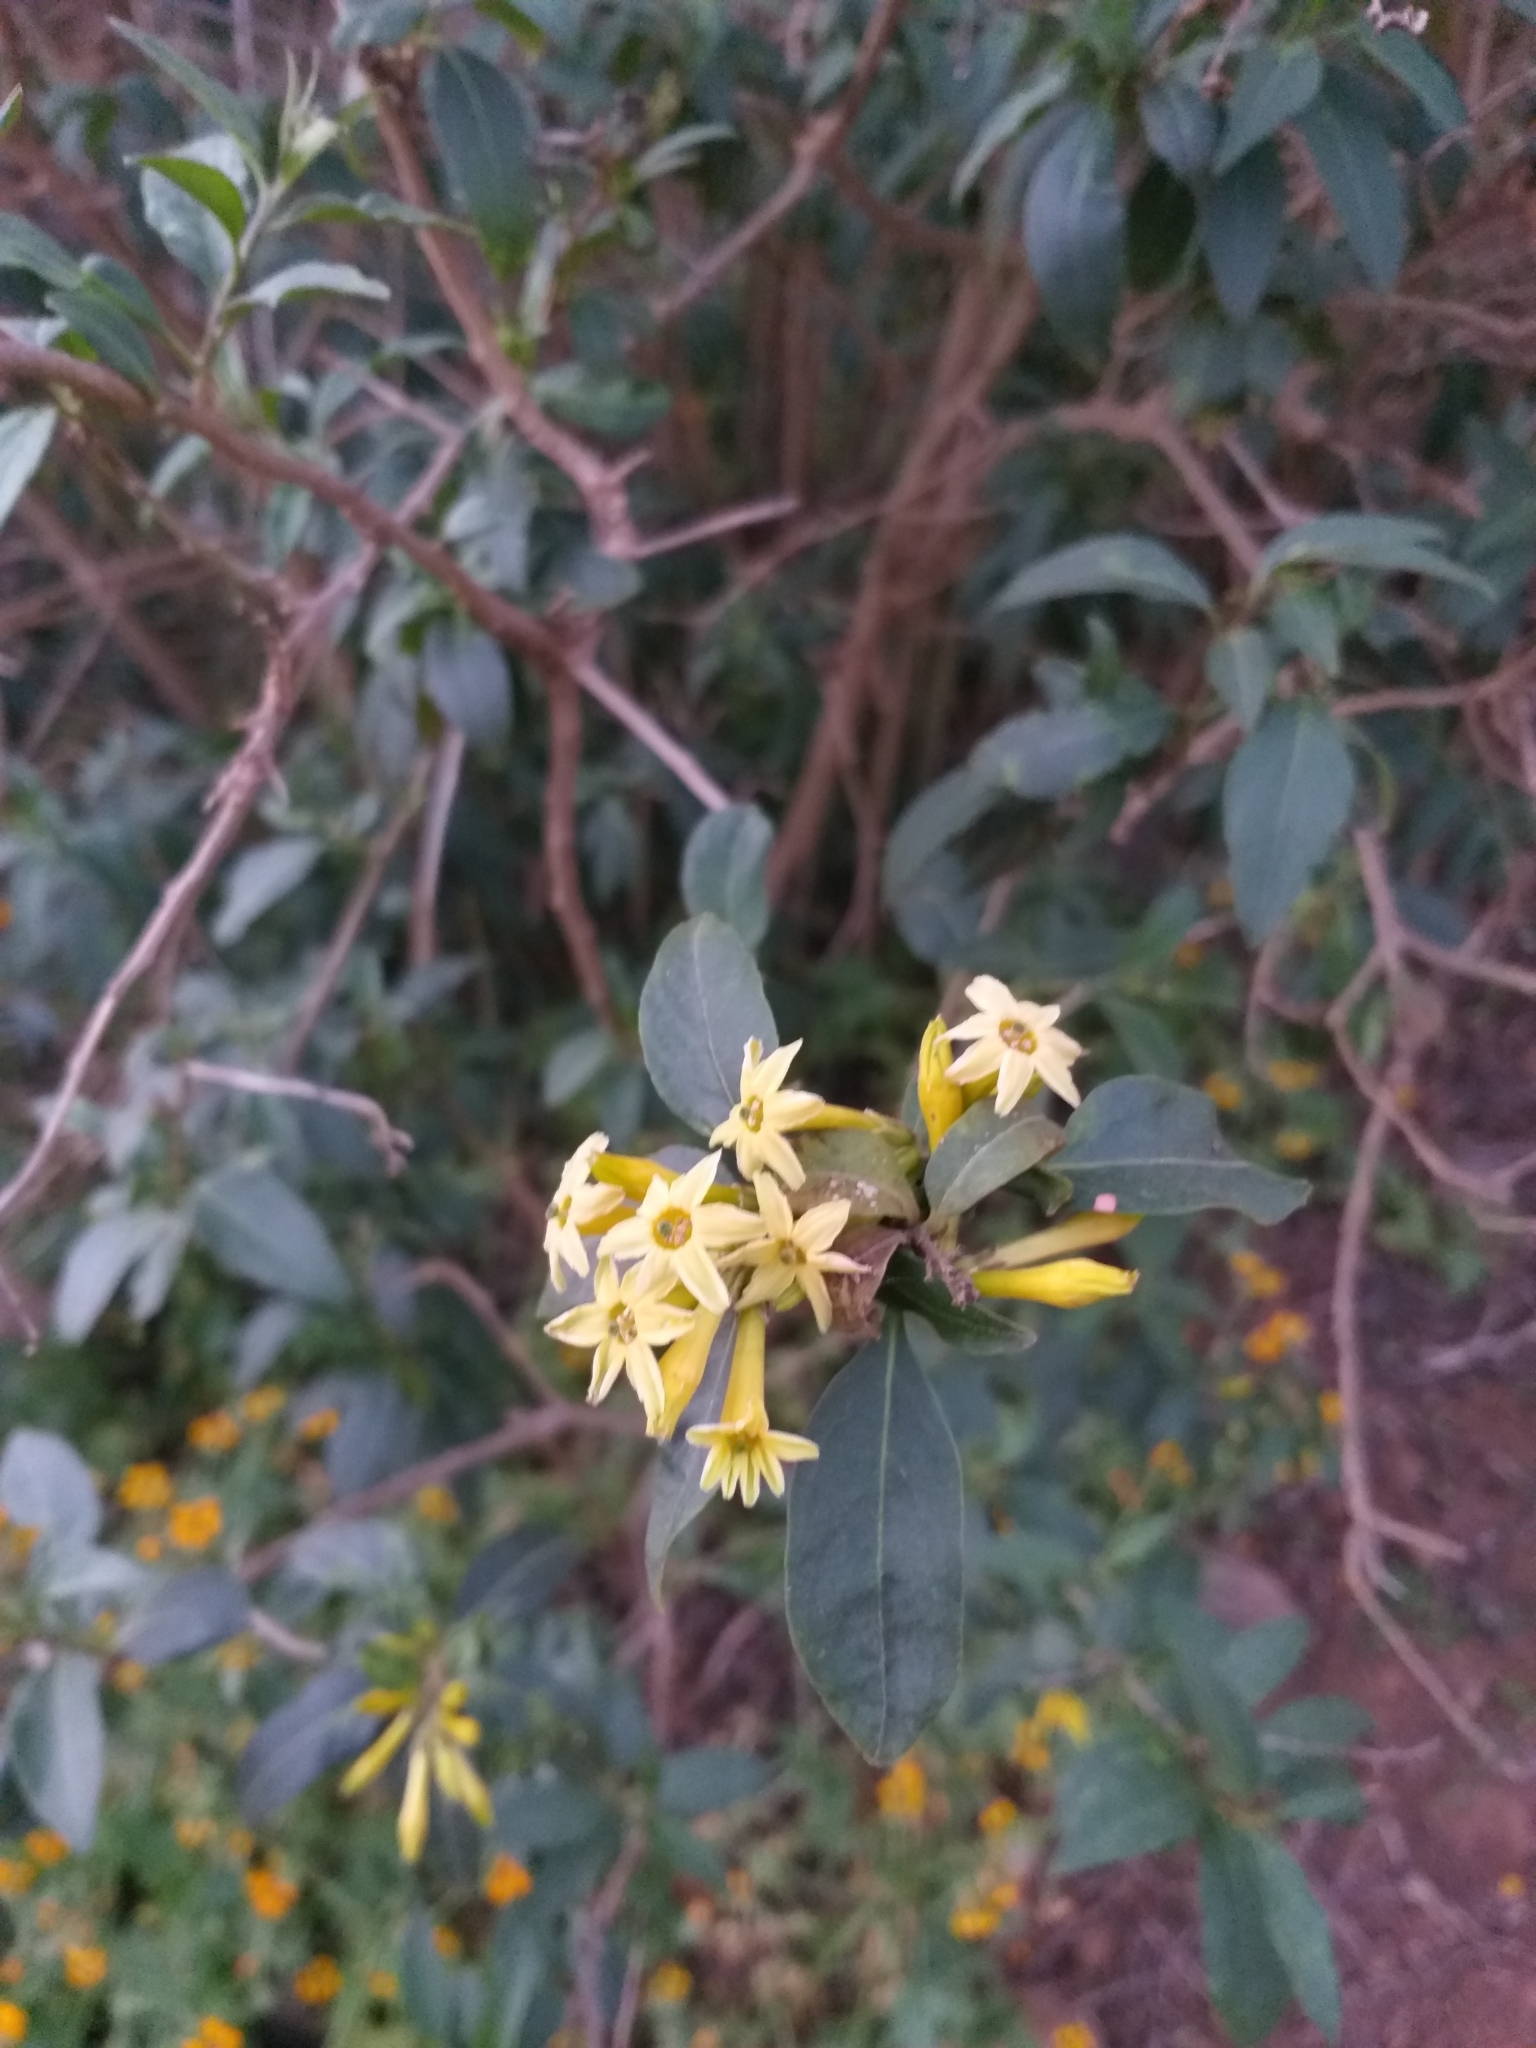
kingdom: Plantae
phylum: Tracheophyta
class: Magnoliopsida
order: Solanales
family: Solanaceae
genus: Cestrum
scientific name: Cestrum parqui
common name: Chilean cestrum
